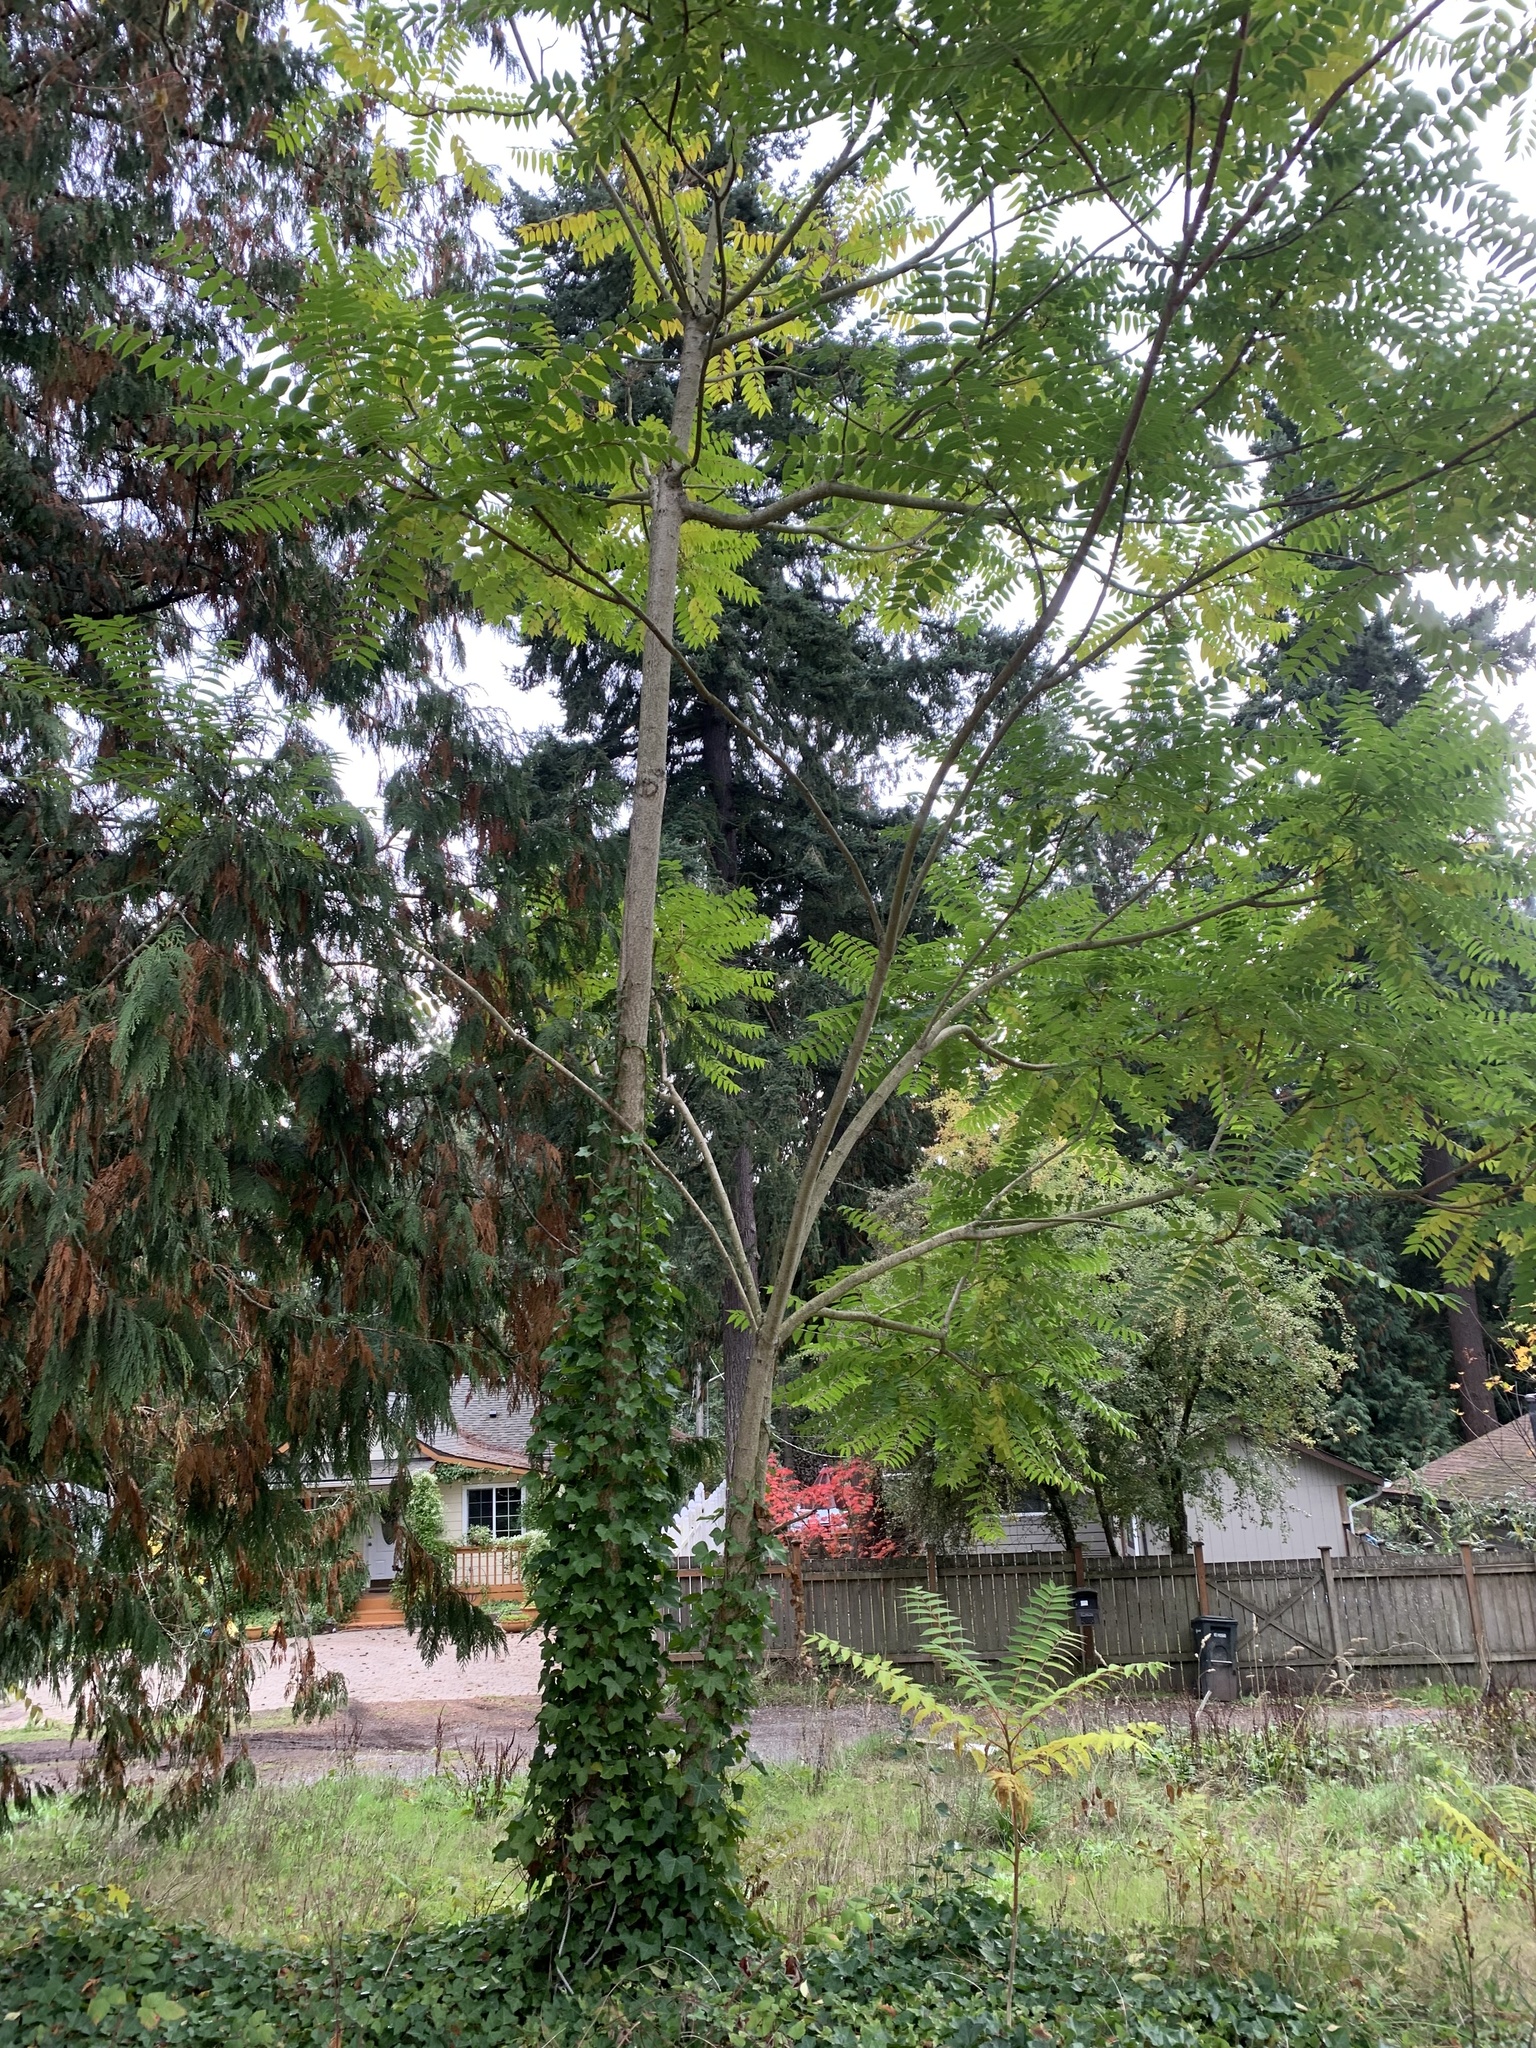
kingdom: Plantae
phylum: Tracheophyta
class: Magnoliopsida
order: Sapindales
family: Simaroubaceae
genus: Ailanthus
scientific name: Ailanthus altissima
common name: Tree-of-heaven
